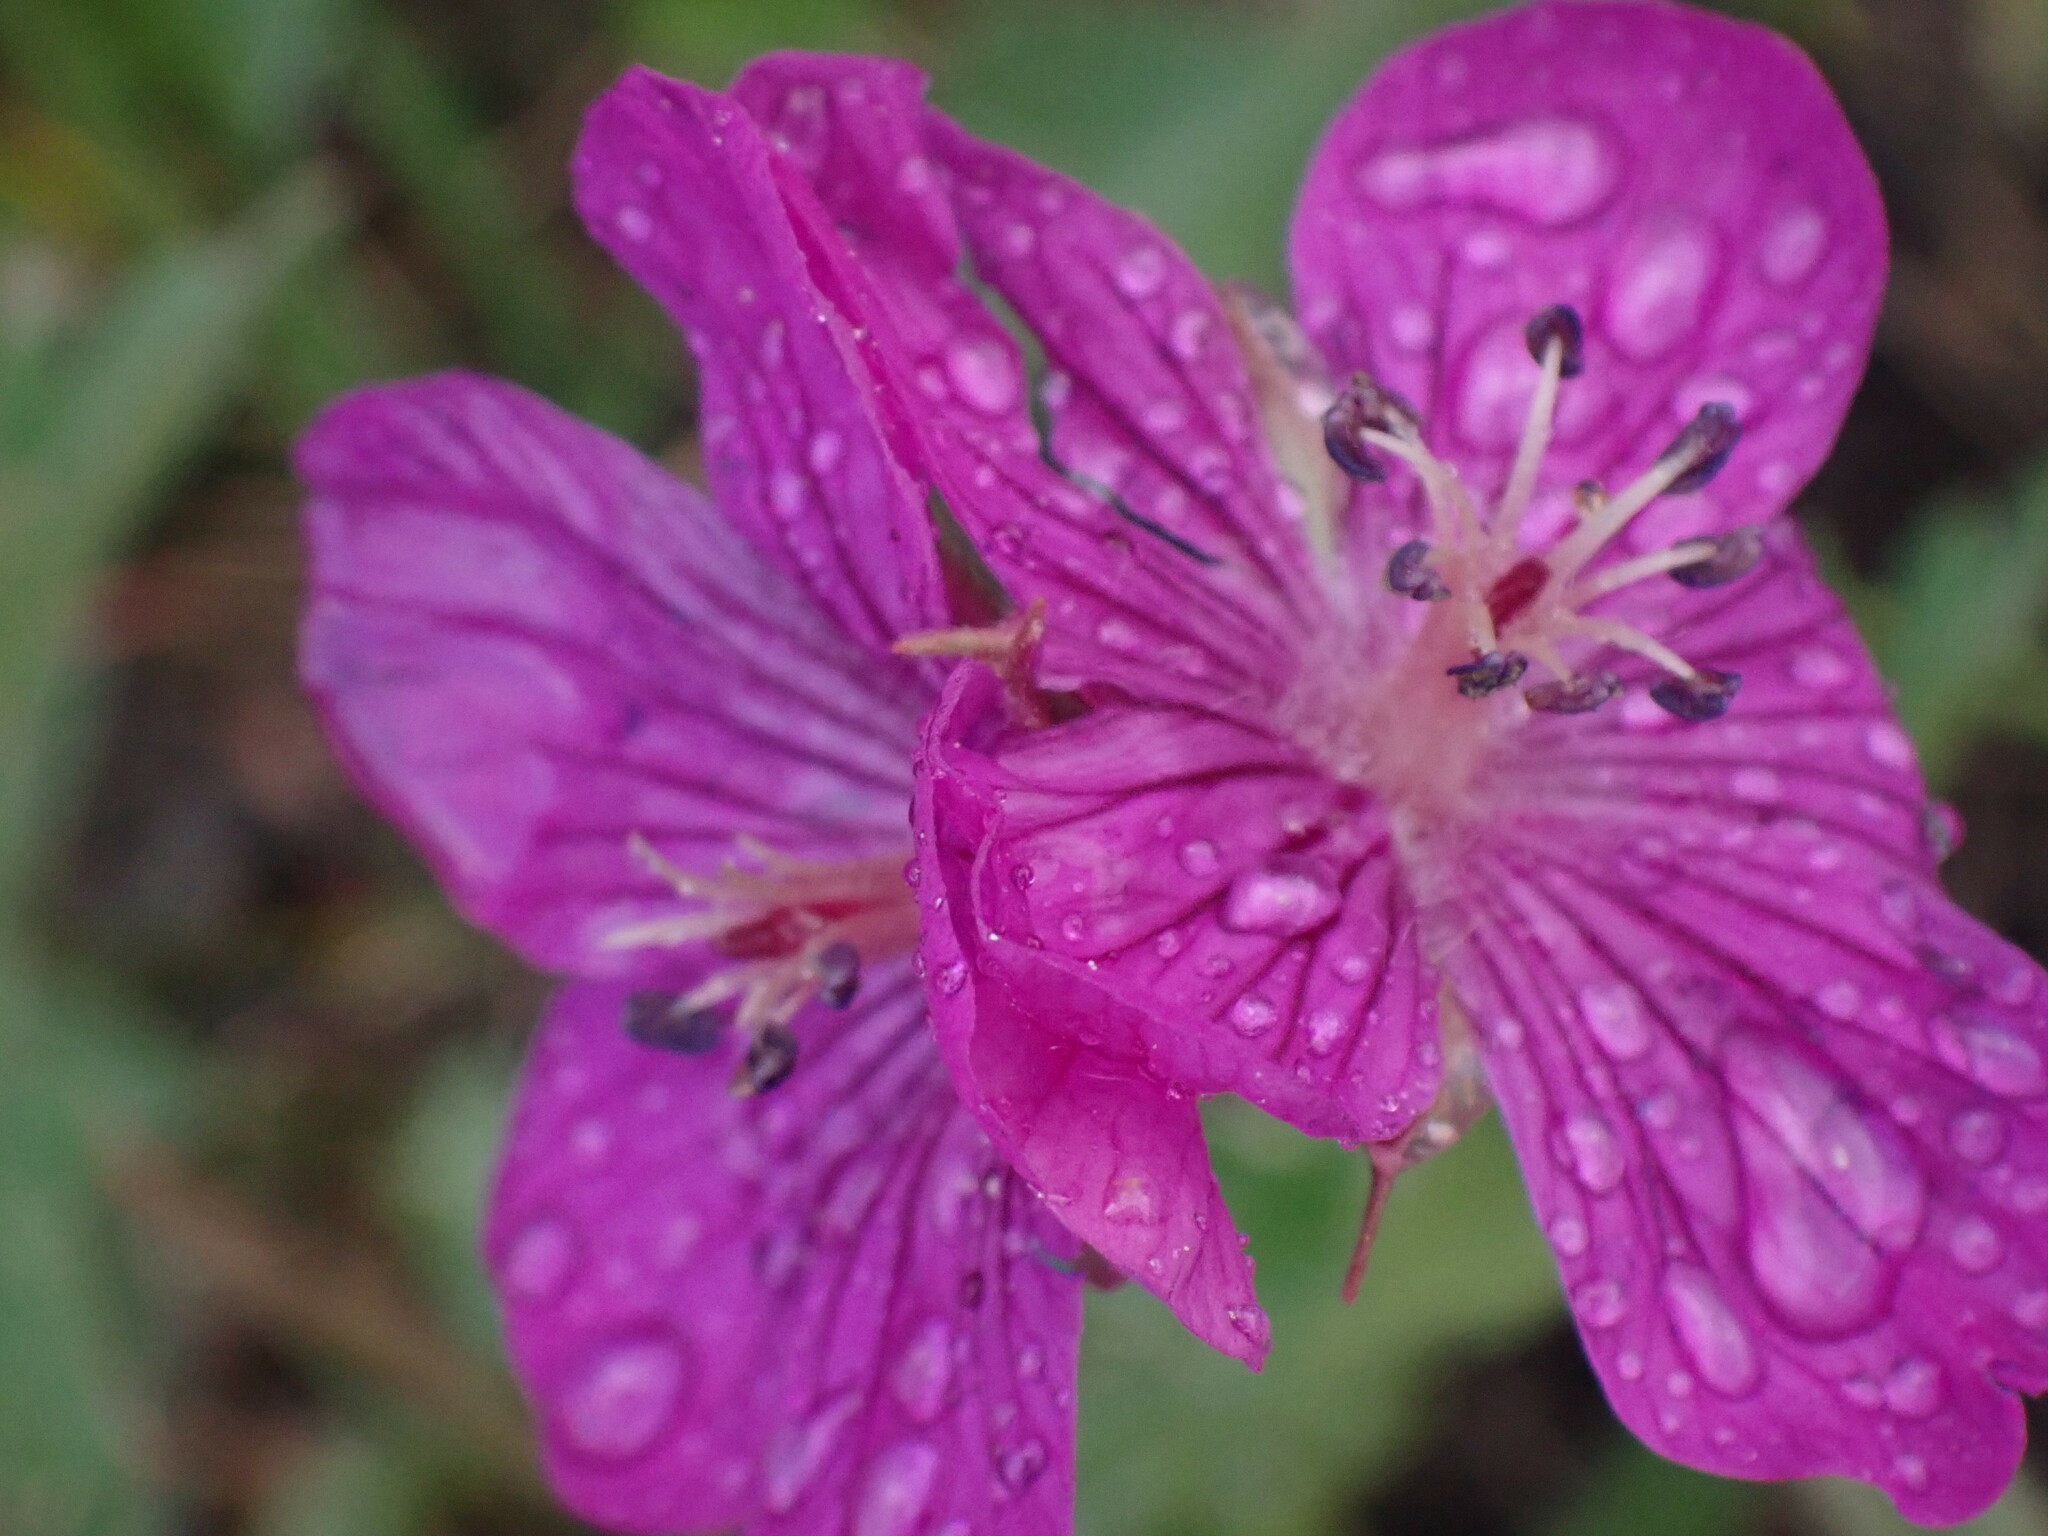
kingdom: Plantae
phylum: Tracheophyta
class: Magnoliopsida
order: Geraniales
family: Geraniaceae
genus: Geranium
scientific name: Geranium viscosissimum
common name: Purple geranium
